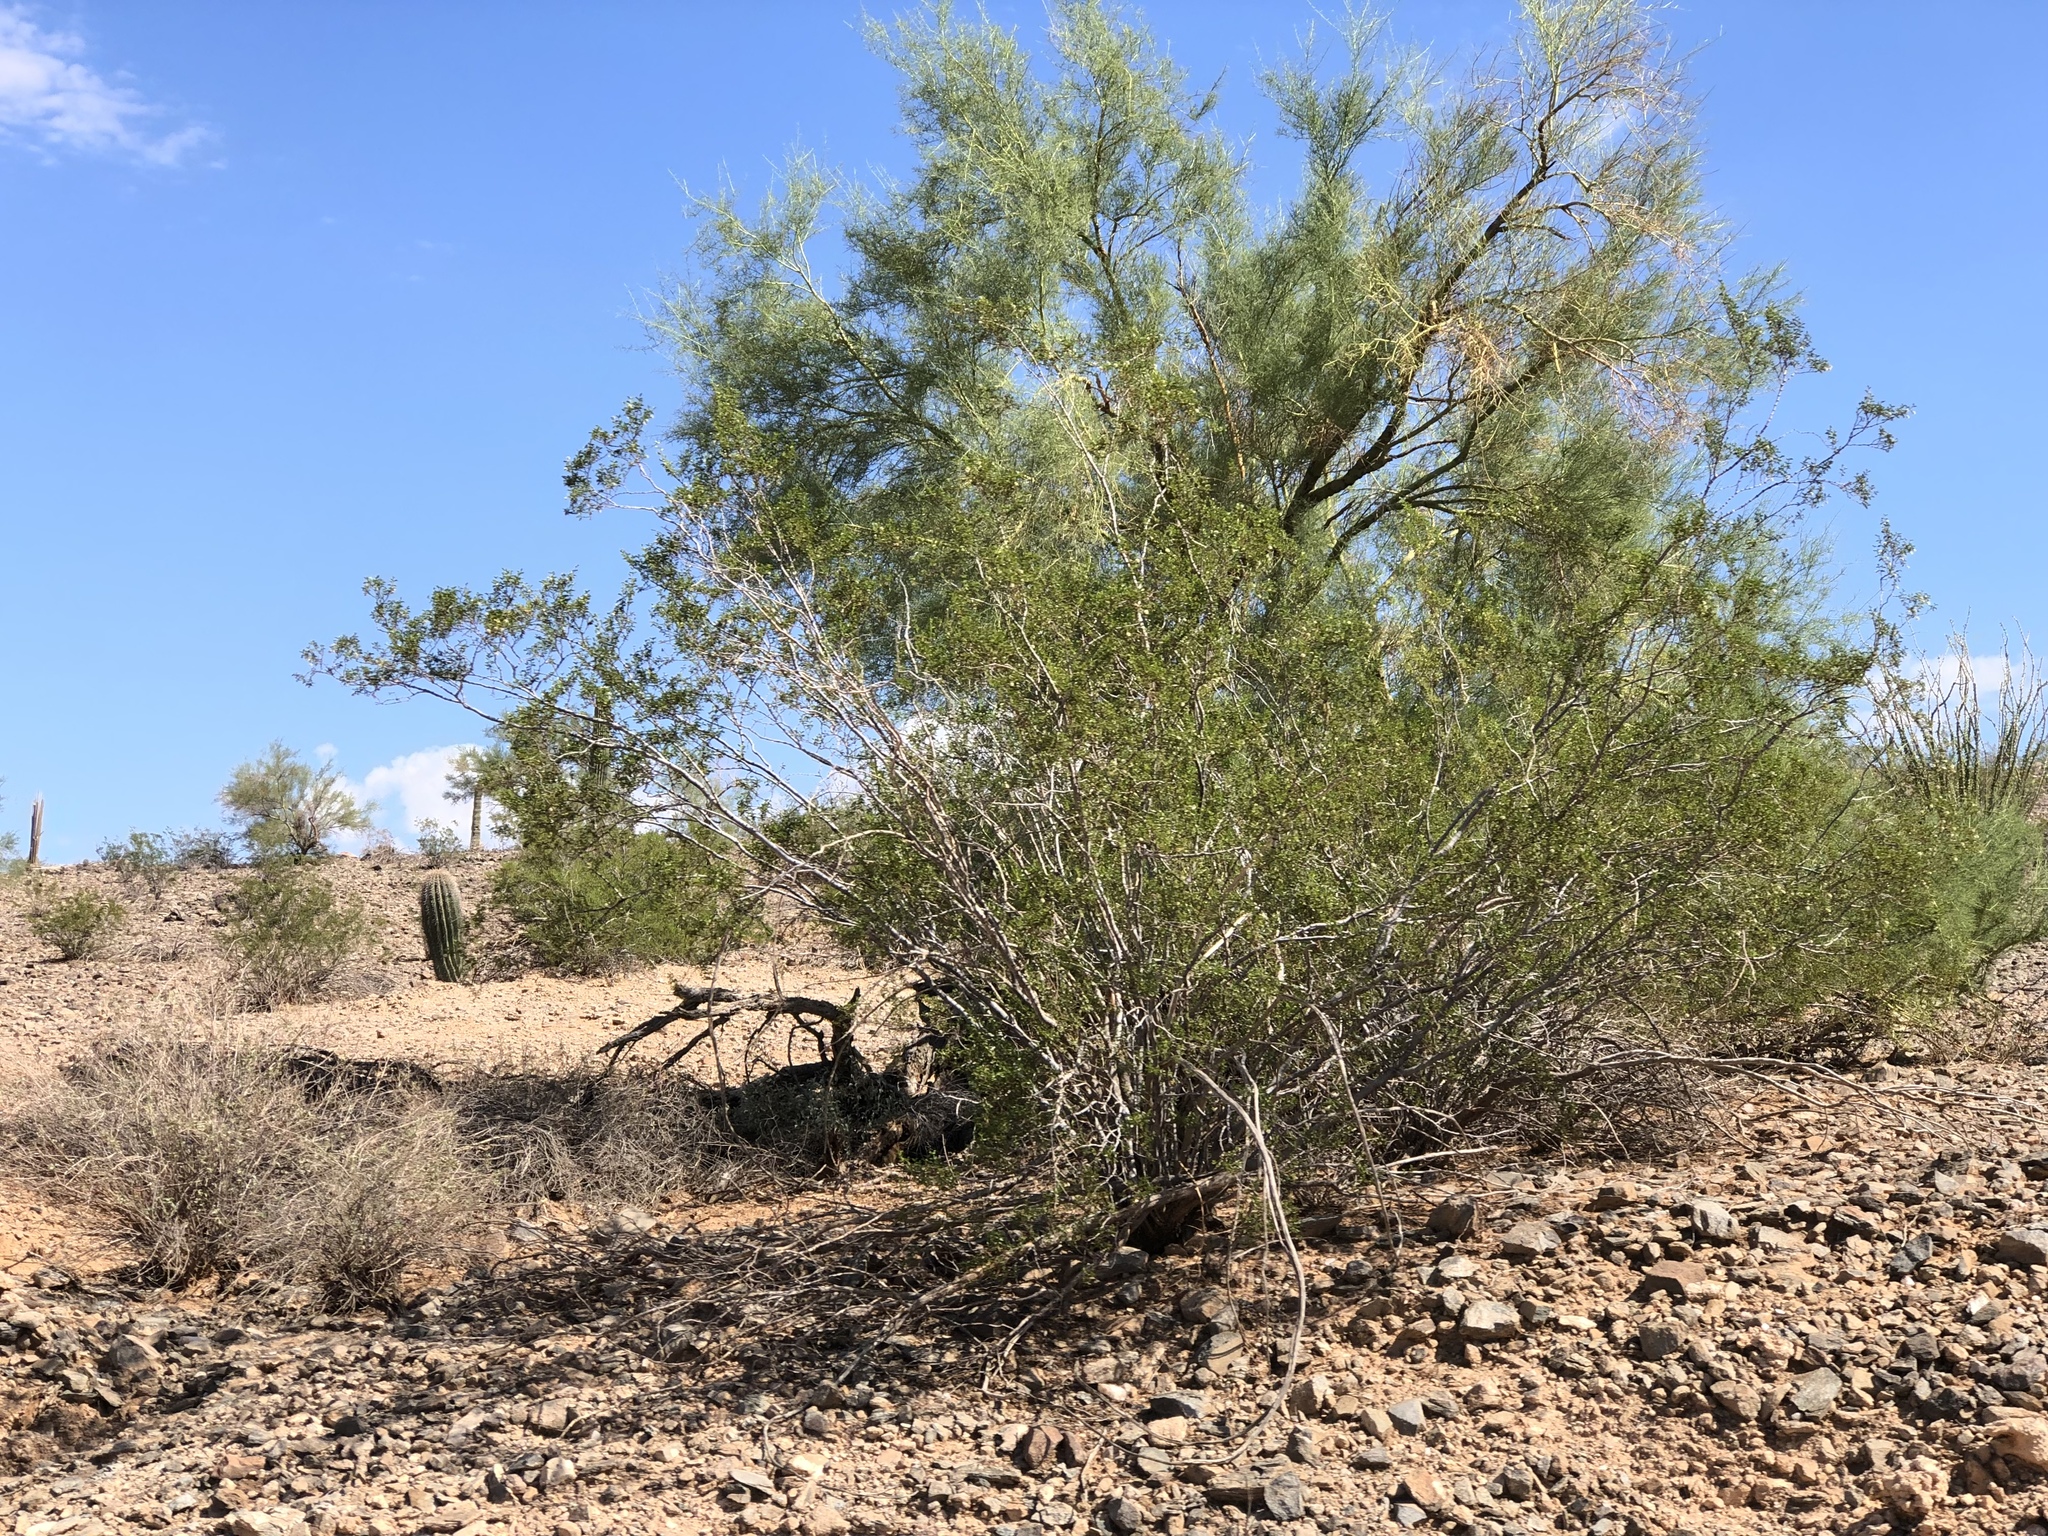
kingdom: Plantae
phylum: Tracheophyta
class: Magnoliopsida
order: Fabales
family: Fabaceae
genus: Parkinsonia
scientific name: Parkinsonia microphylla
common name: Yellow paloverde
